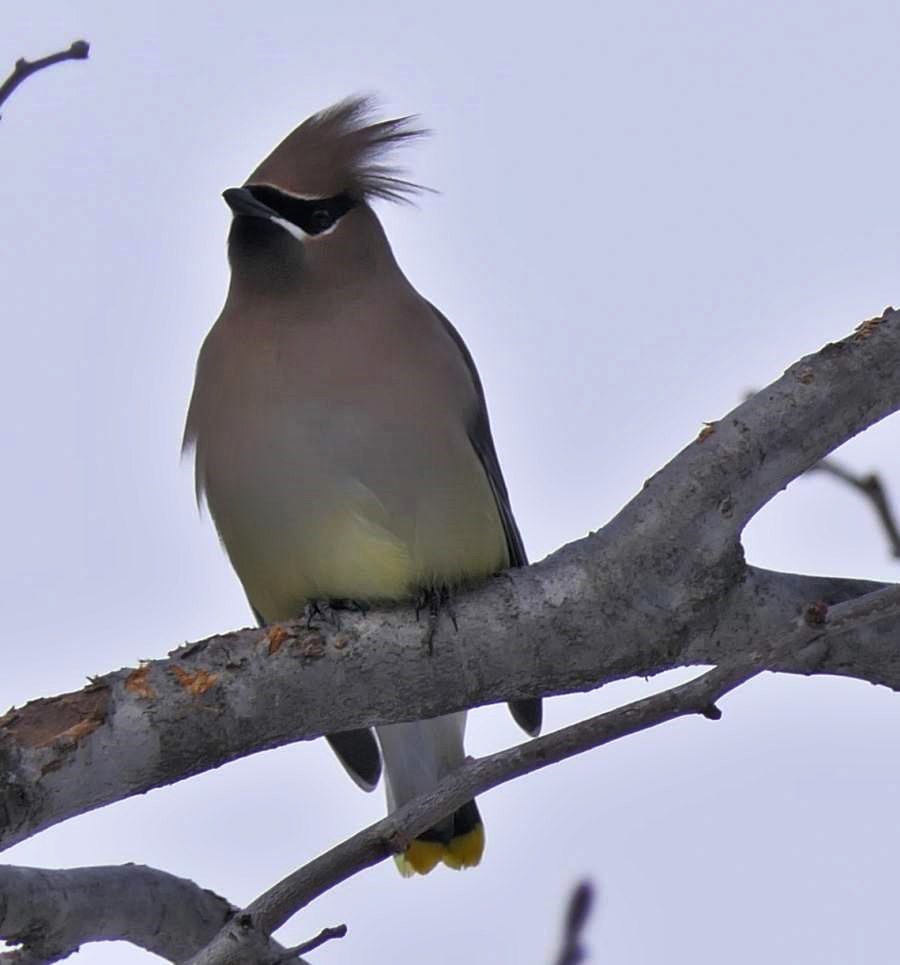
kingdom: Animalia
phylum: Chordata
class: Aves
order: Passeriformes
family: Bombycillidae
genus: Bombycilla
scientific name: Bombycilla cedrorum
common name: Cedar waxwing
